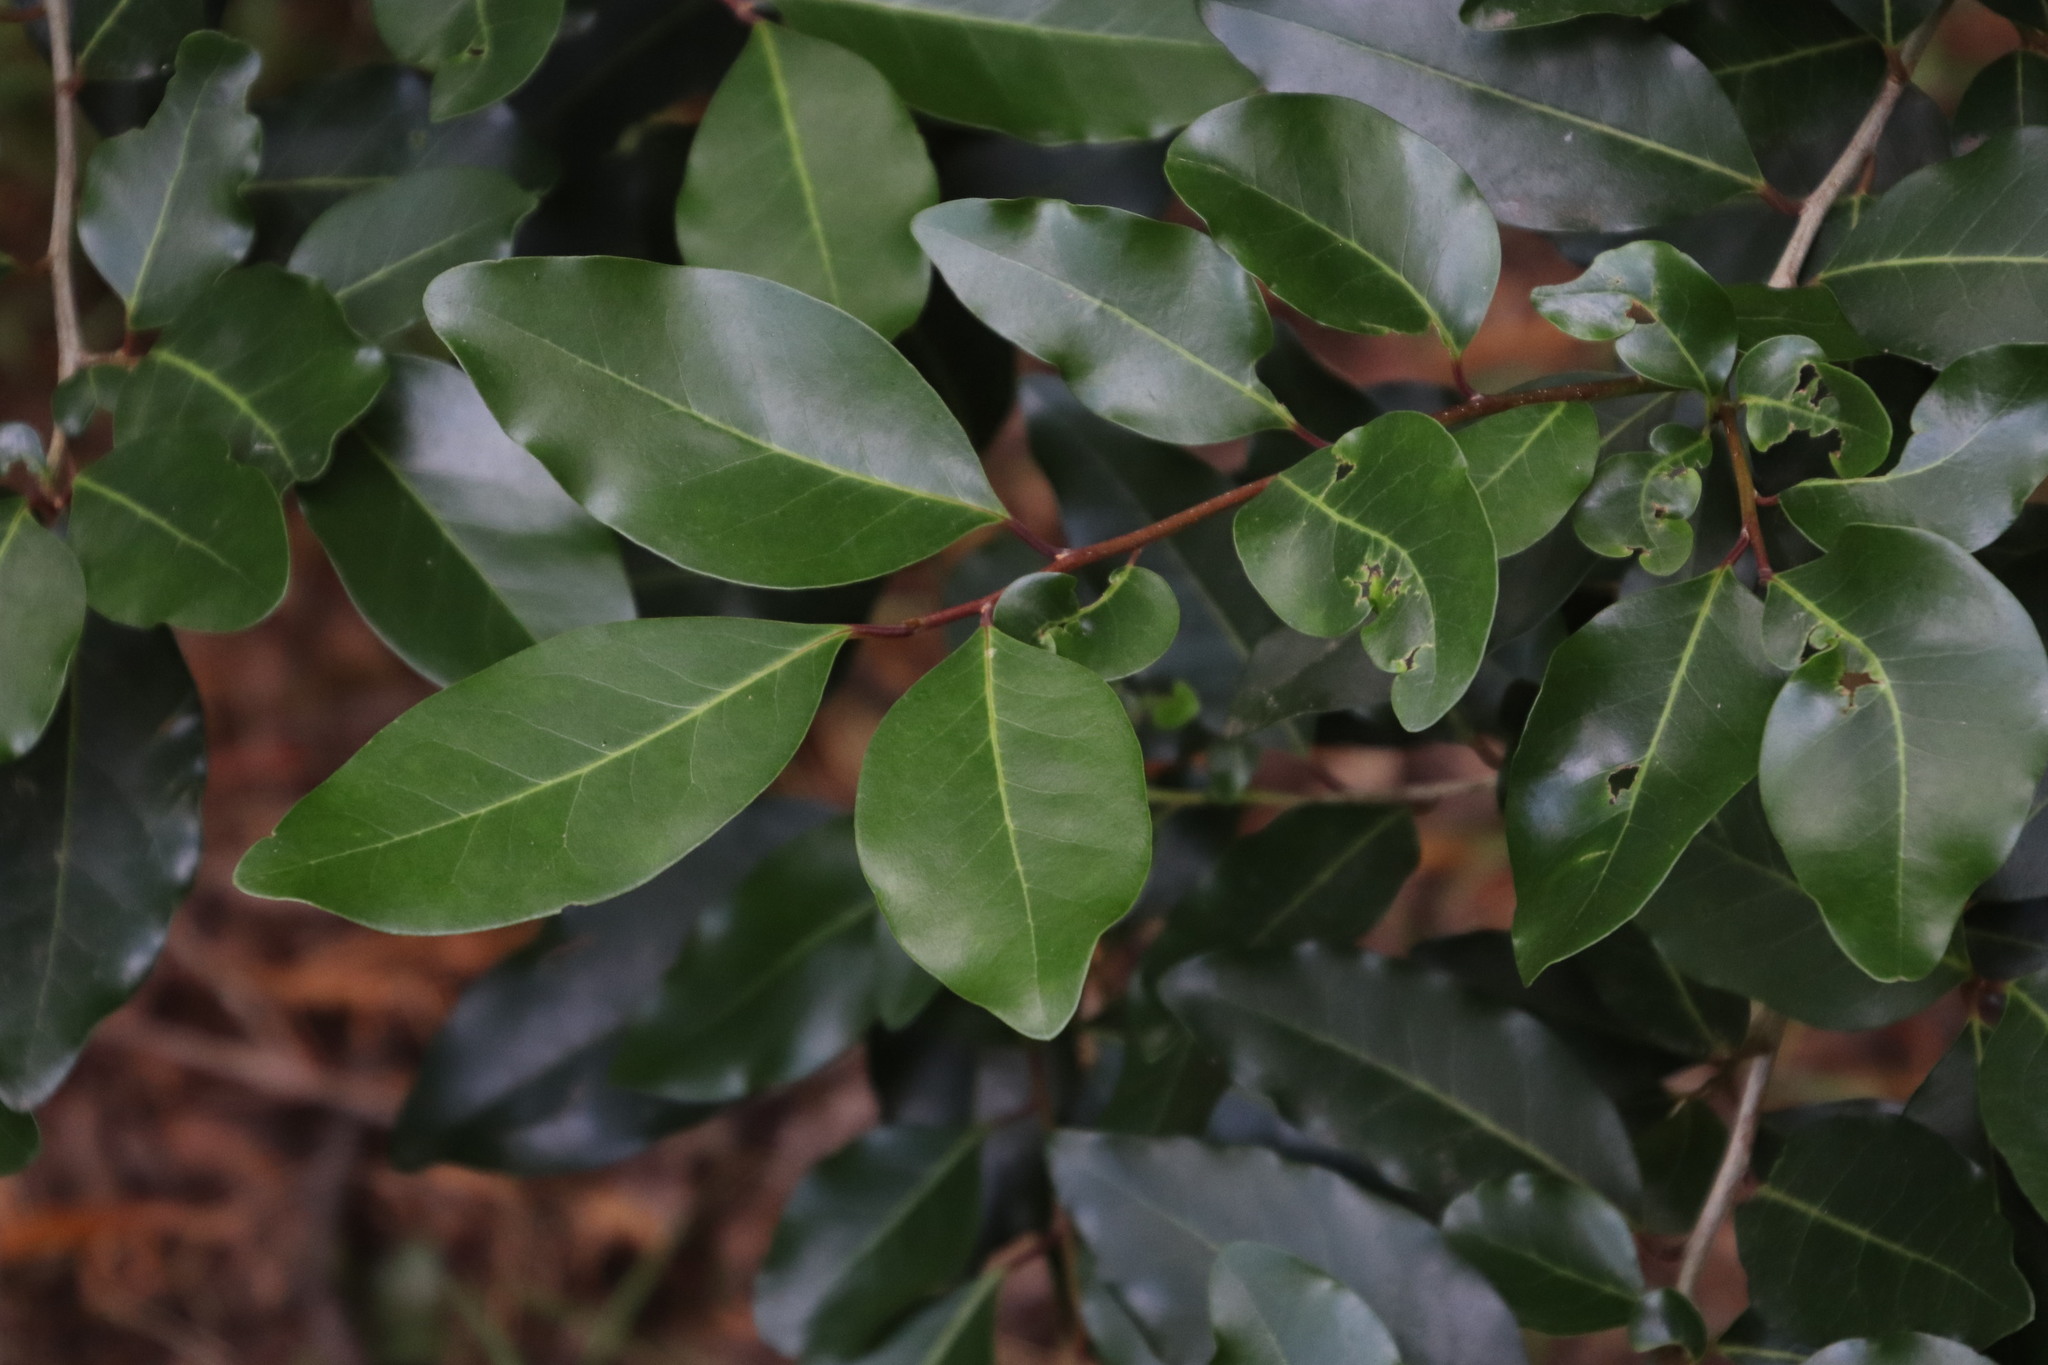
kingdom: Plantae
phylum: Tracheophyta
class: Magnoliopsida
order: Metteniusales
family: Metteniusaceae
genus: Apodytes
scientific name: Apodytes dimidiata
